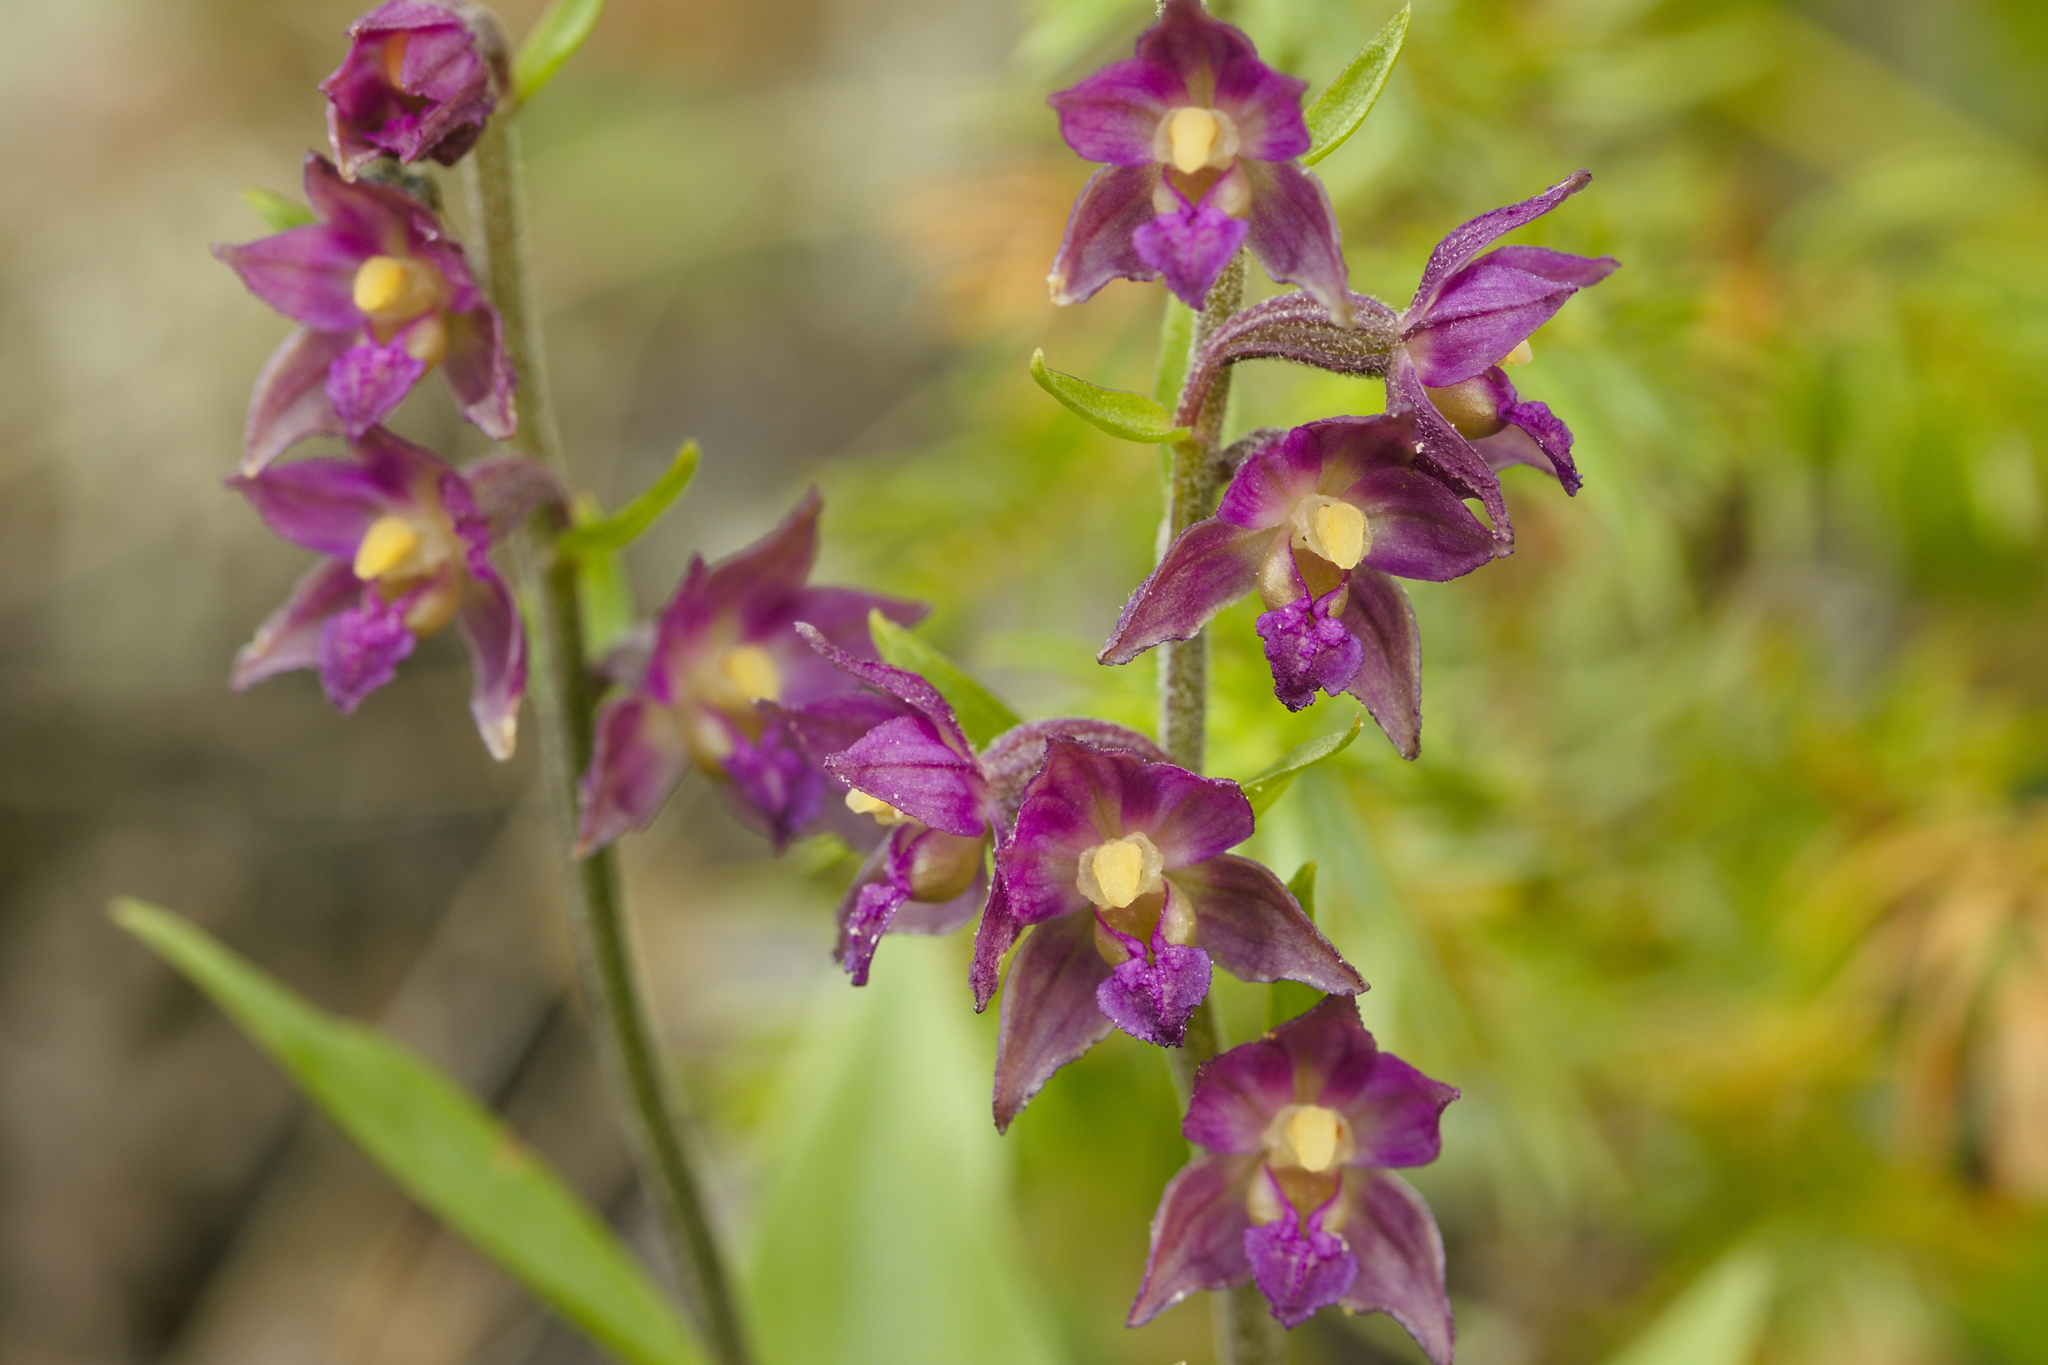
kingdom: Plantae
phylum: Tracheophyta
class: Liliopsida
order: Asparagales
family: Orchidaceae
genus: Epipactis
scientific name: Epipactis atrorubens
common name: Dark-red helleborine
